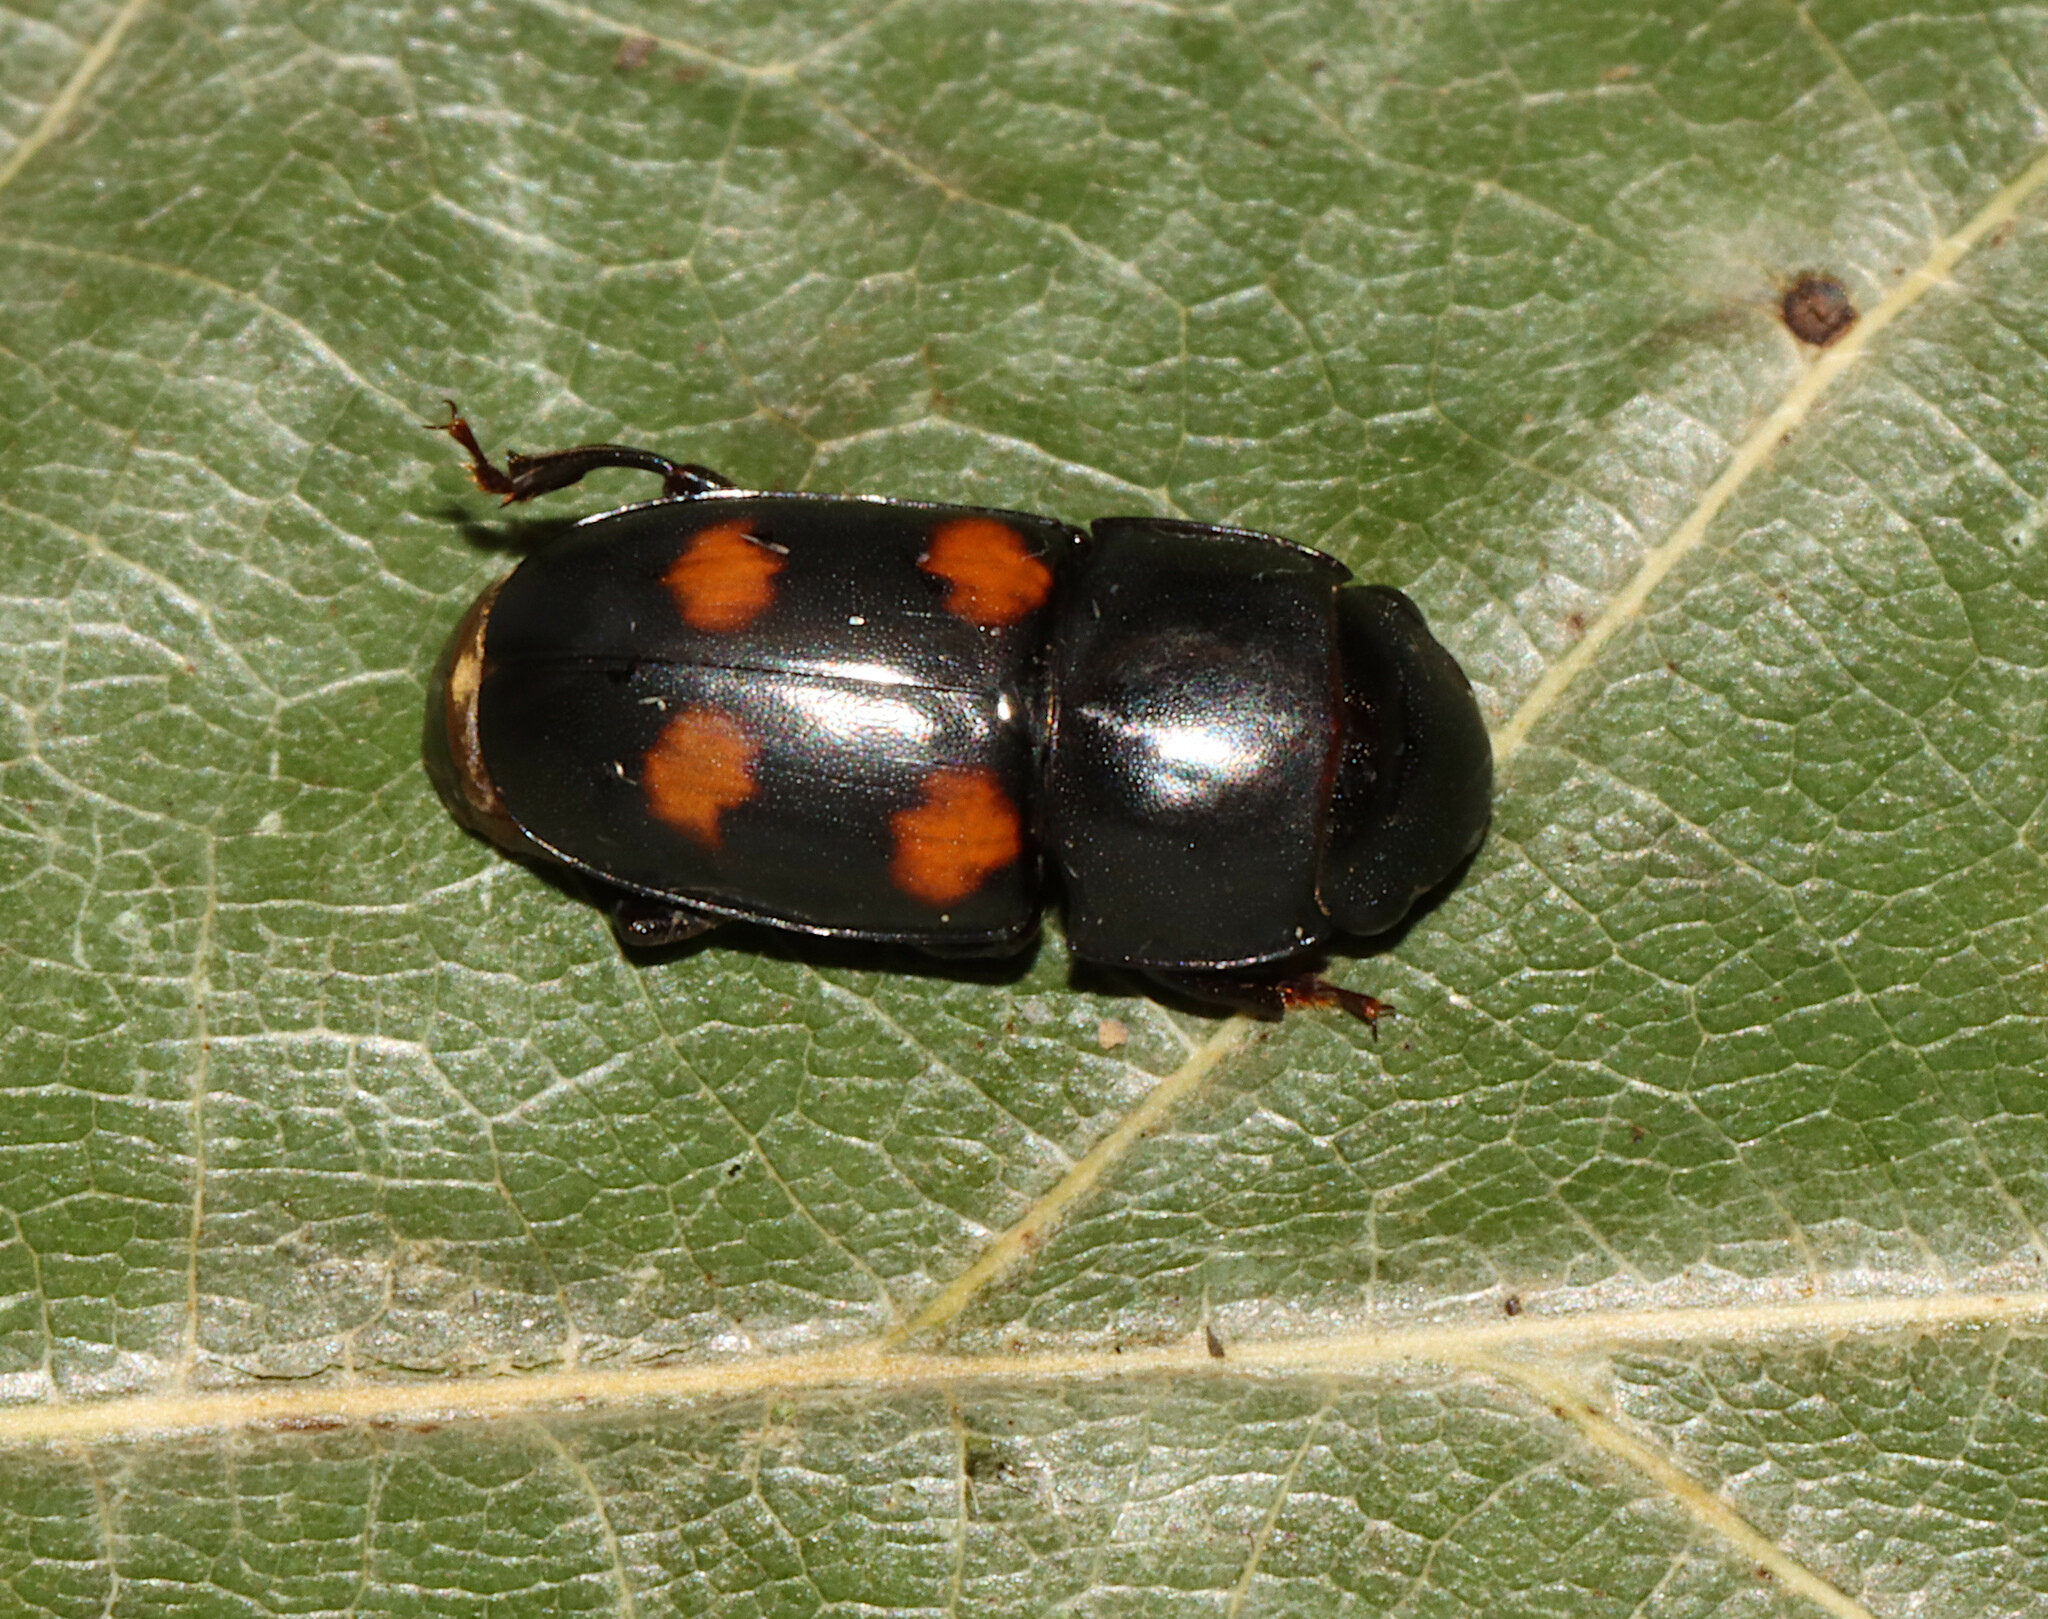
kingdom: Animalia
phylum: Arthropoda
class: Insecta
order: Coleoptera
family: Nitidulidae
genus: Glischrochilus
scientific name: Glischrochilus obtusus
